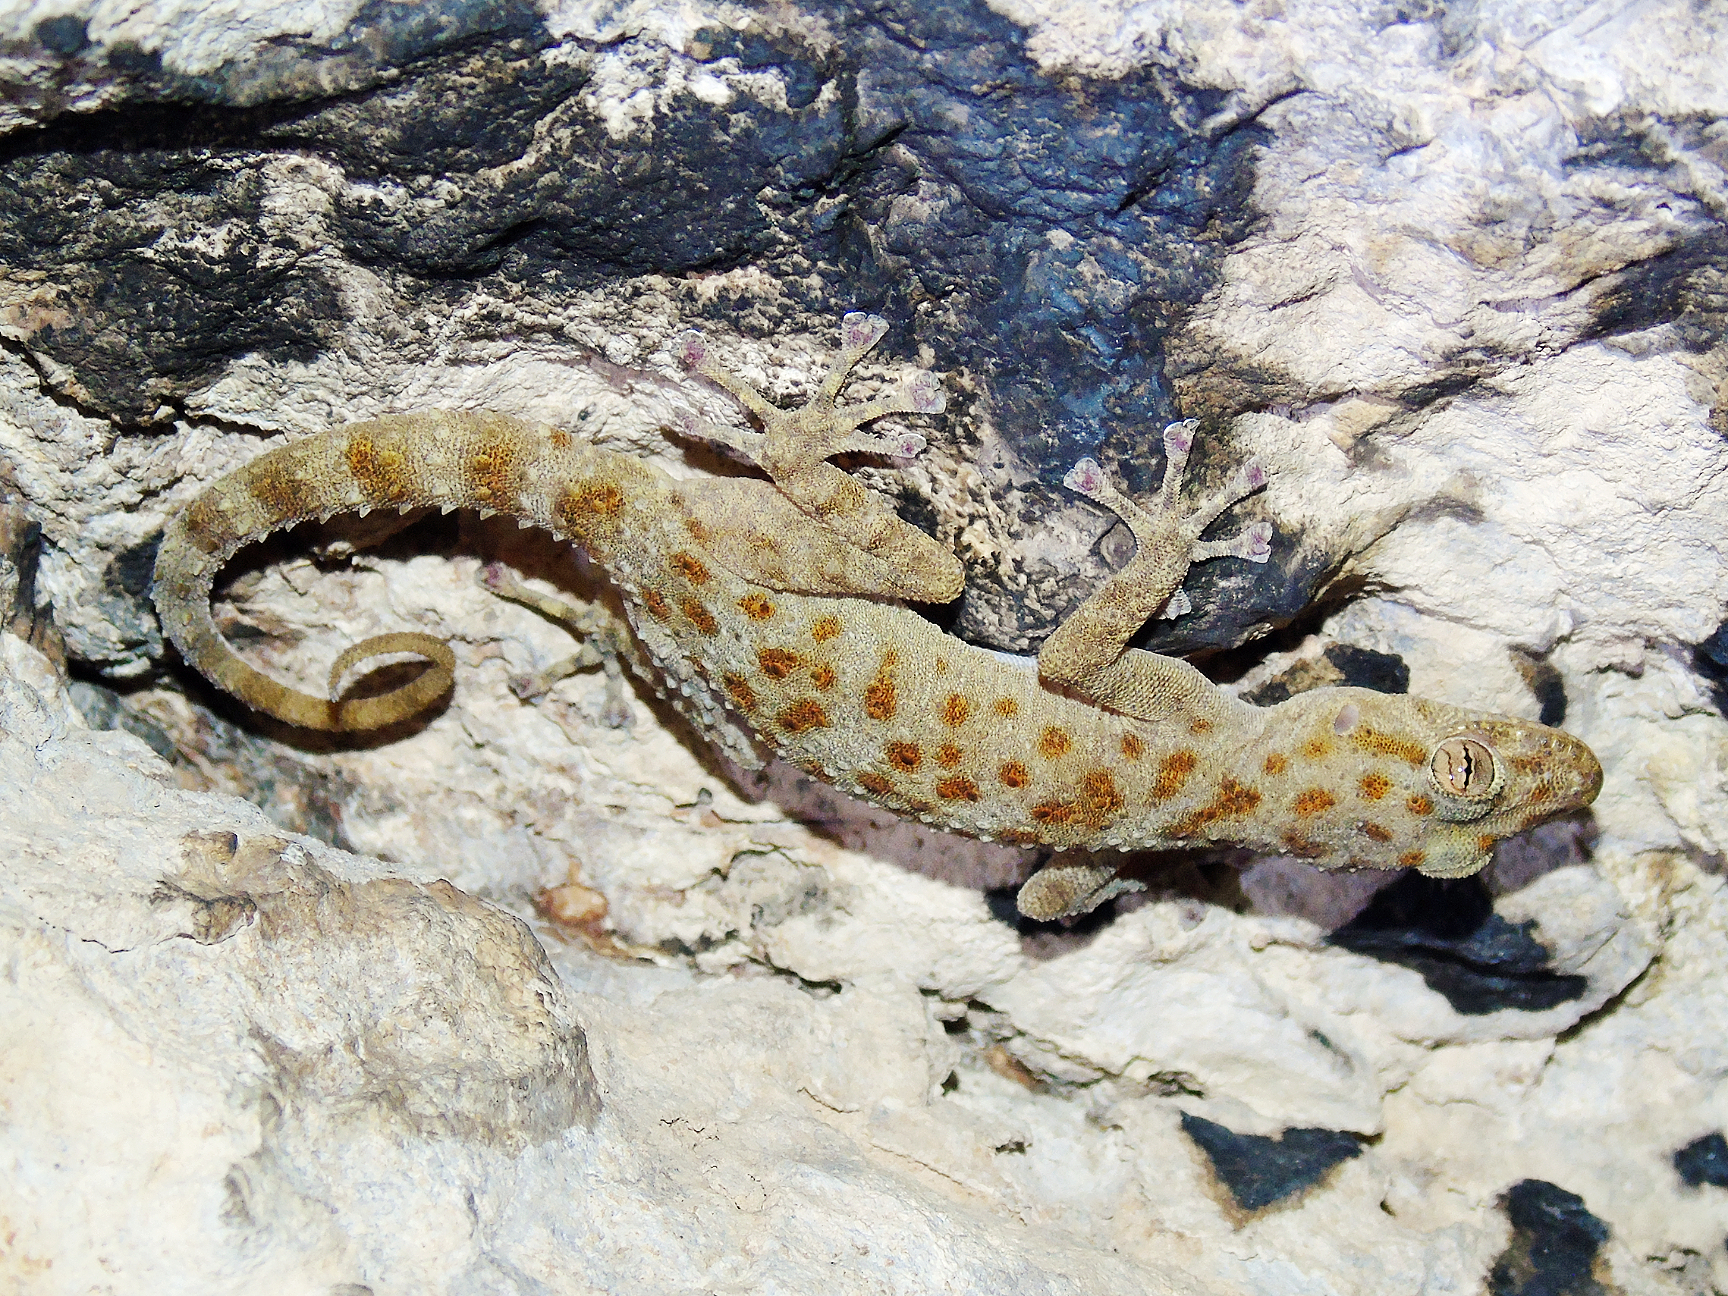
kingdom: Animalia
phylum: Chordata
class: Squamata
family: Phyllodactylidae
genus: Asaccus
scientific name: Asaccus griseonotus
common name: Gray-spotted leaf-toed gecko
